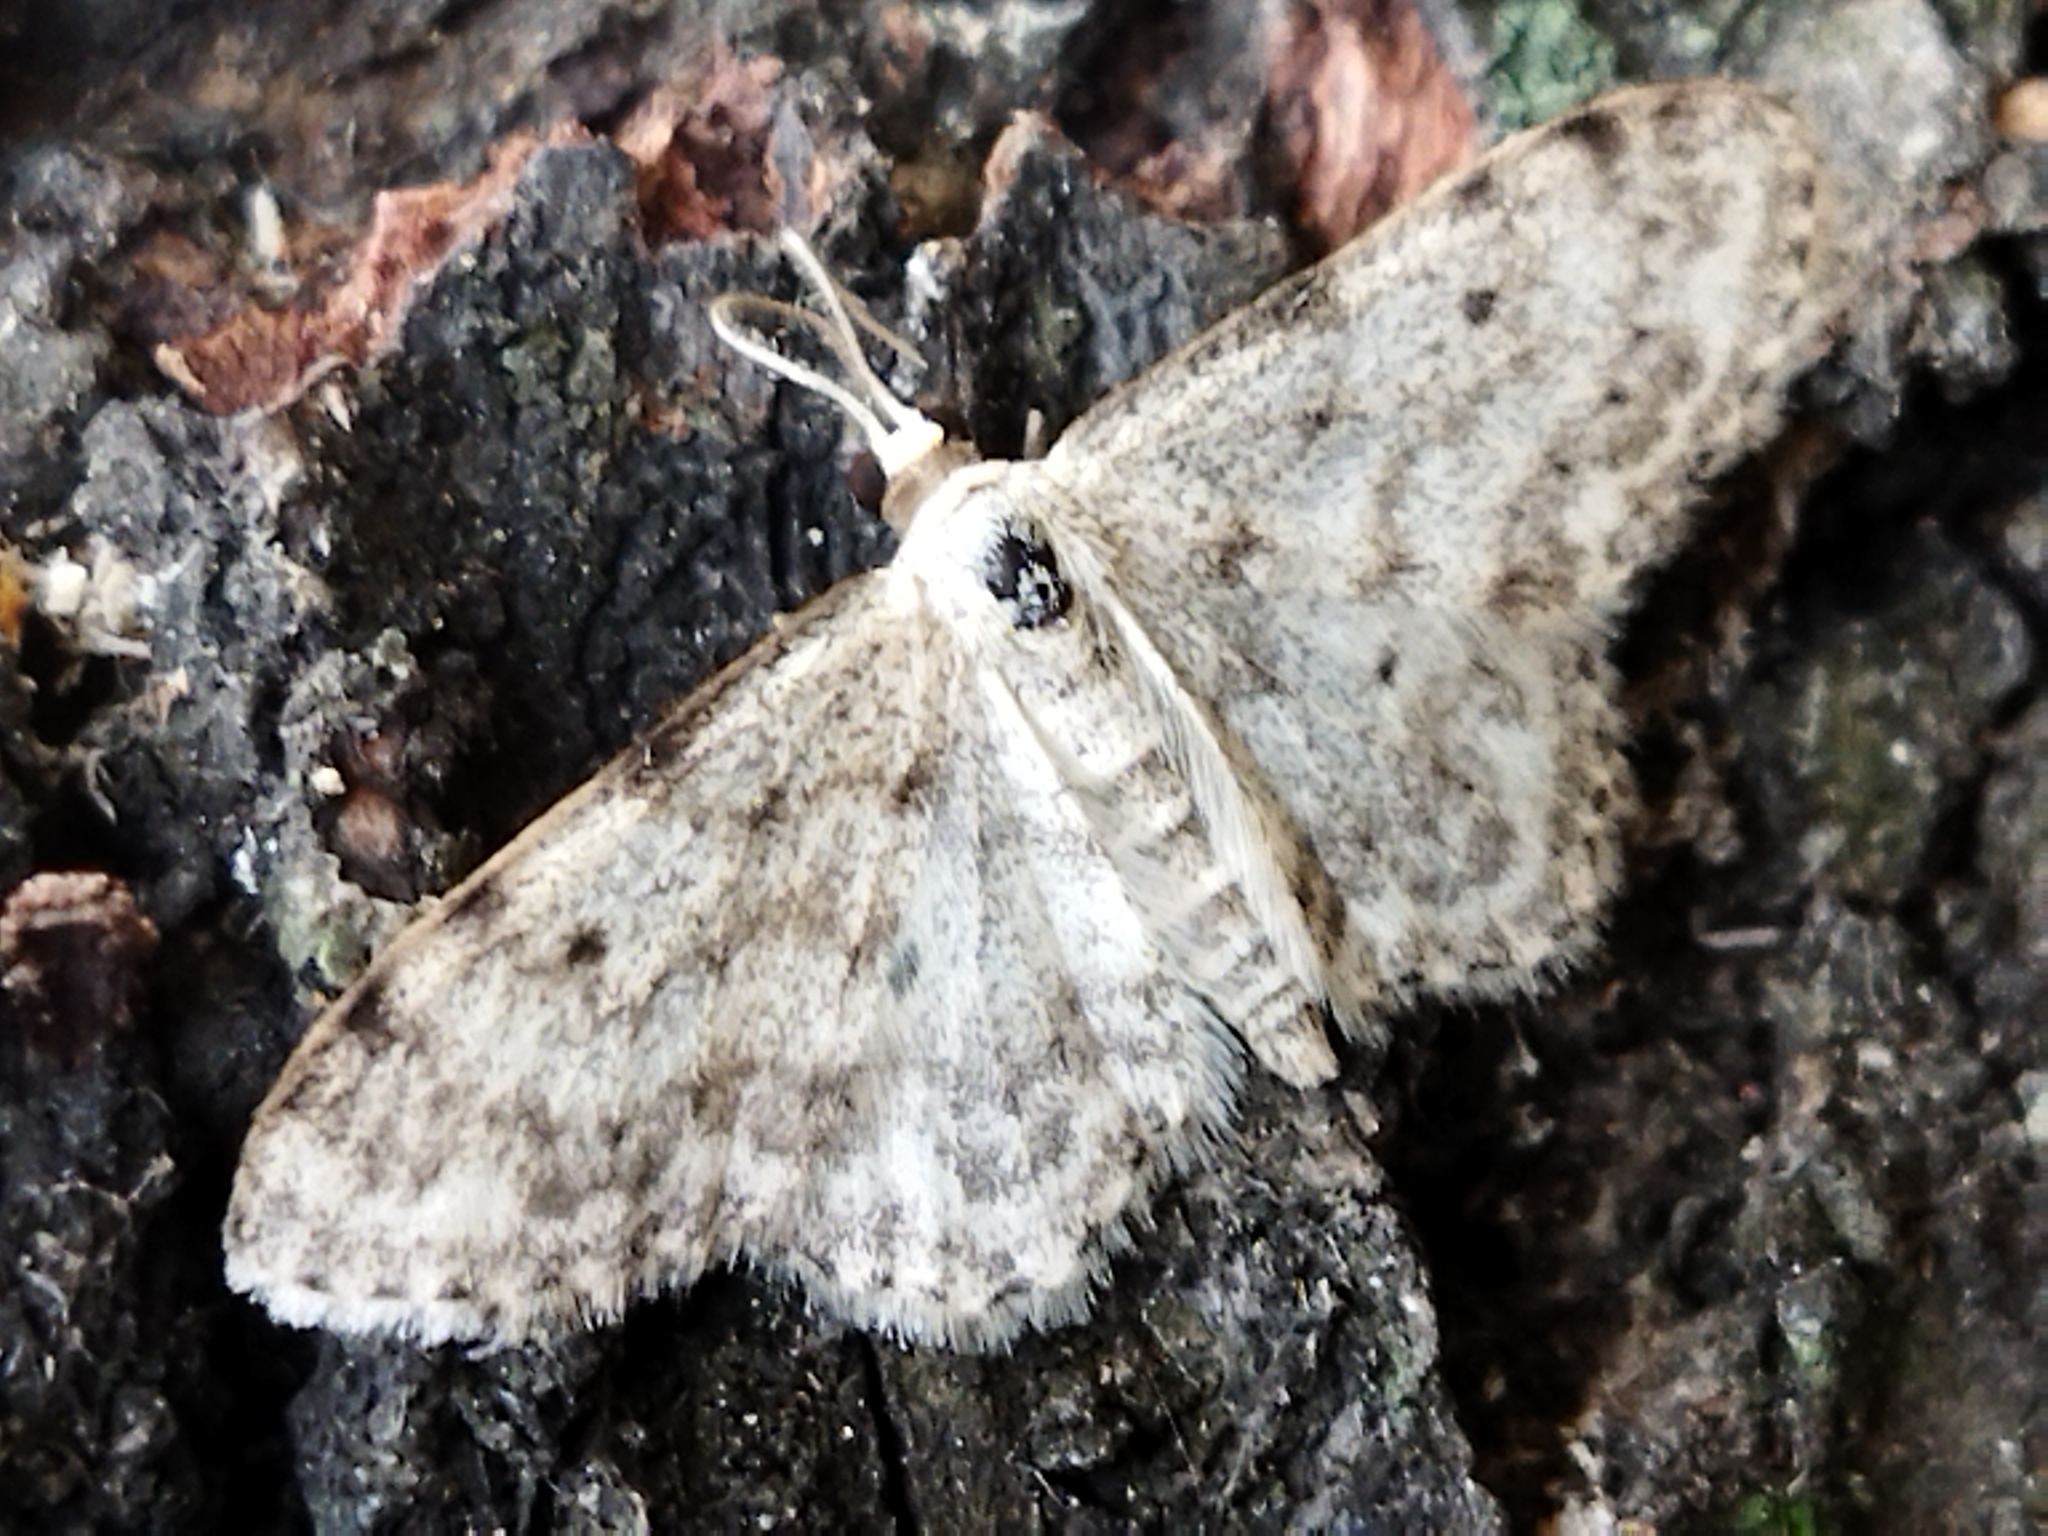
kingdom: Animalia
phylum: Arthropoda
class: Insecta
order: Lepidoptera
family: Geometridae
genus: Idaea
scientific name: Idaea camparia
